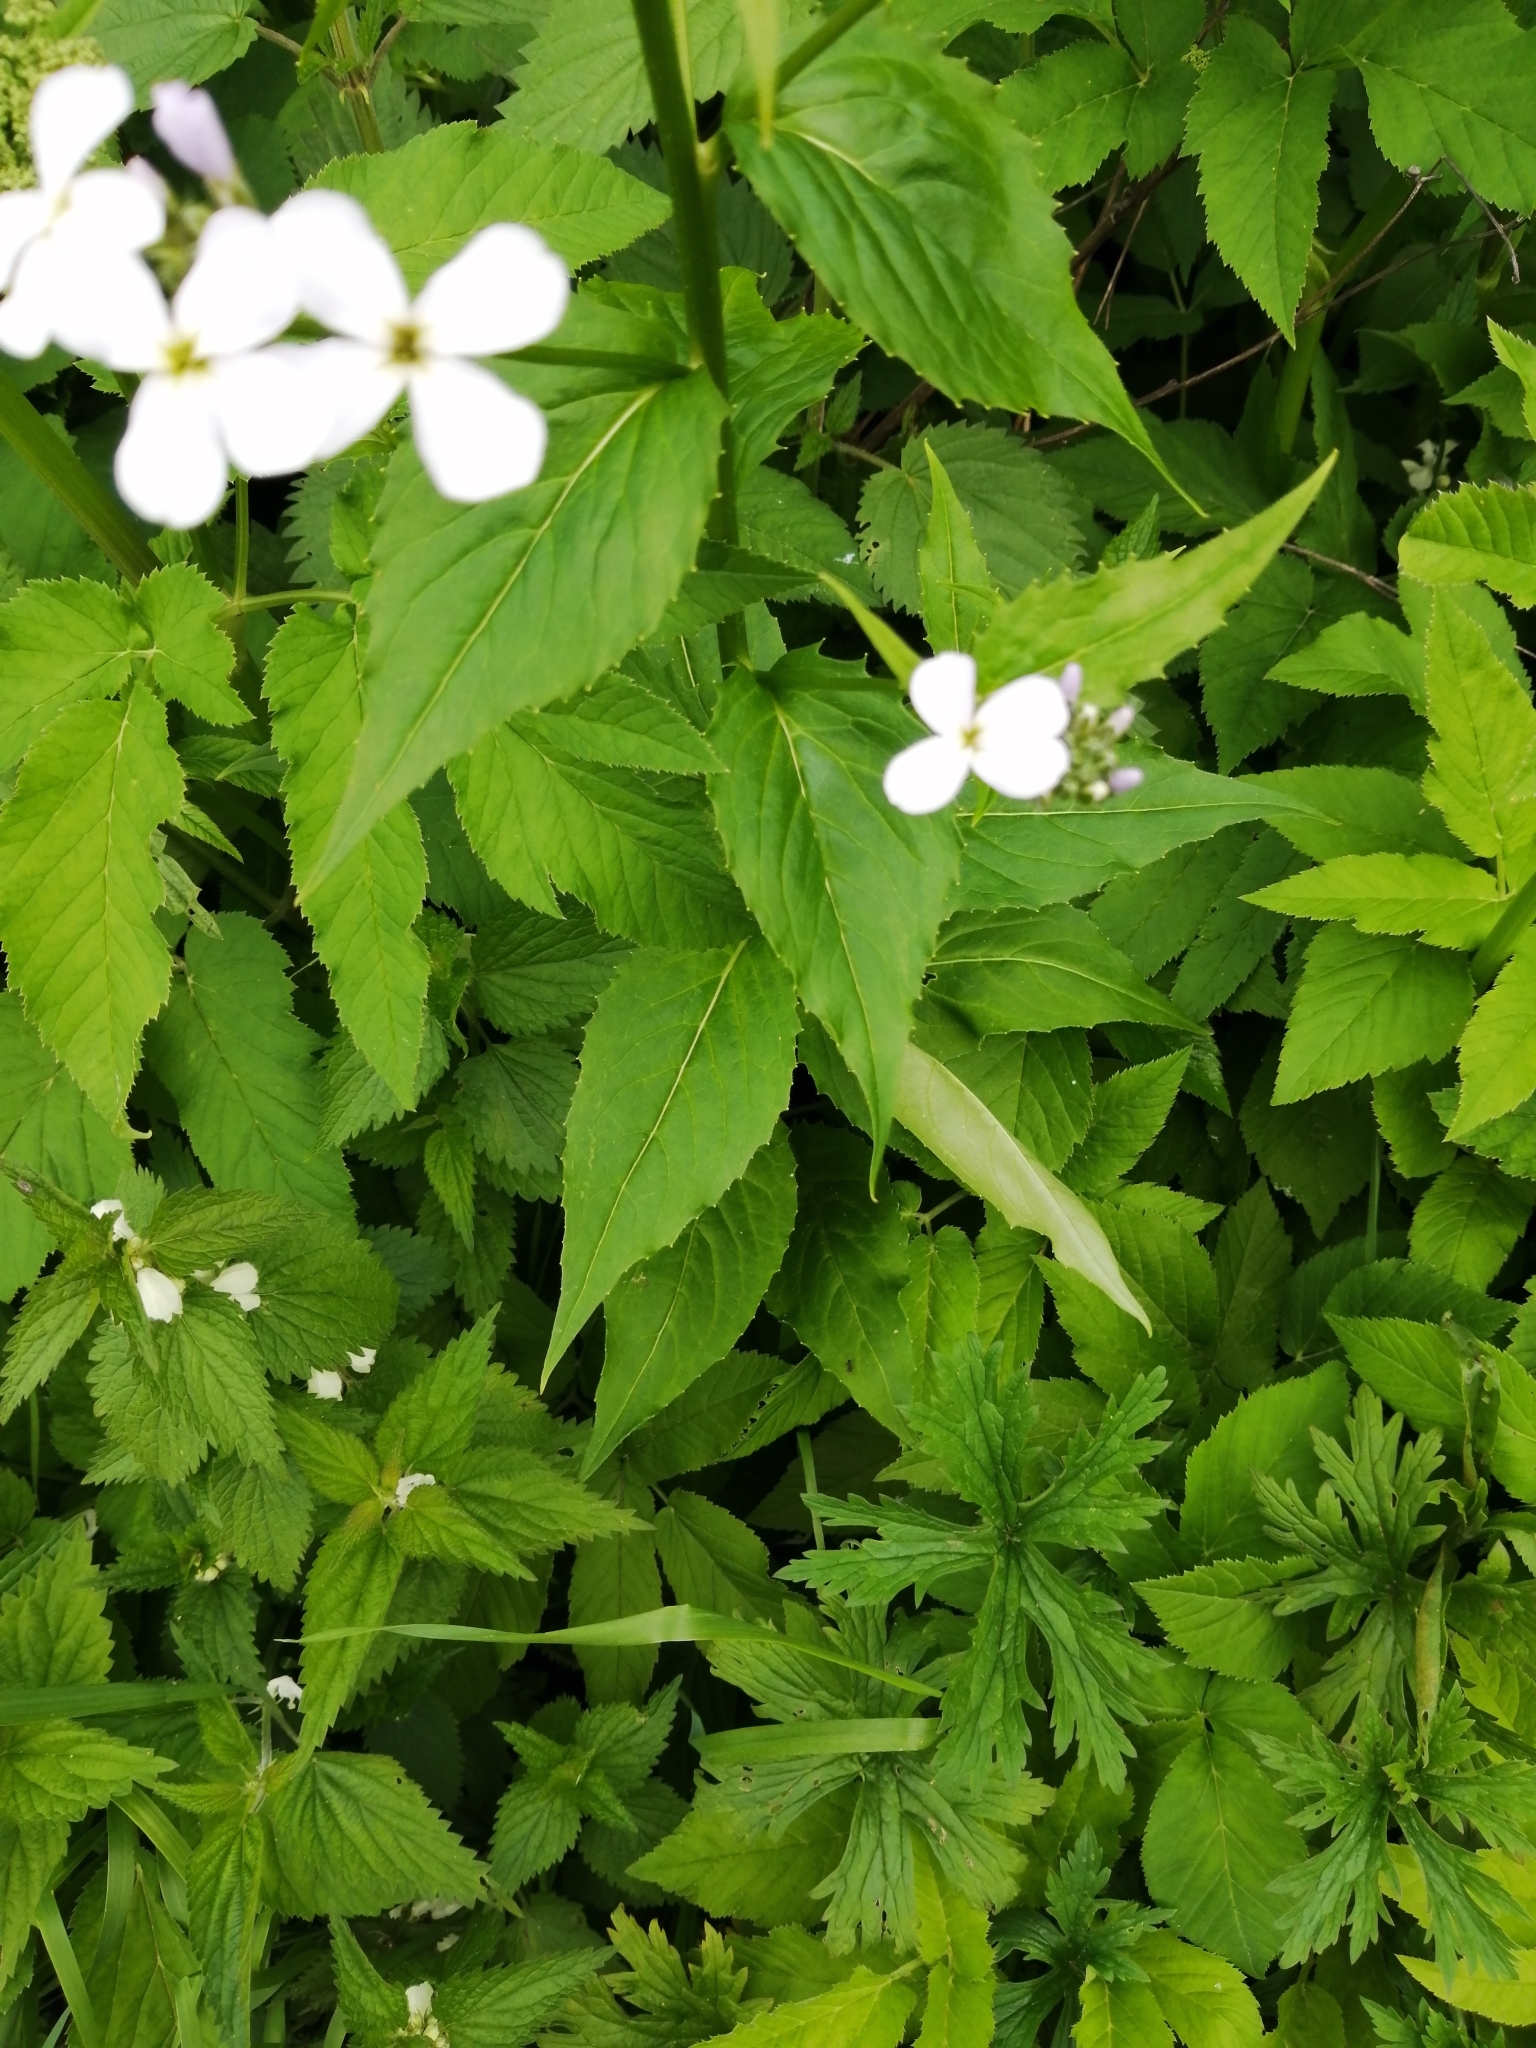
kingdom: Plantae
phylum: Tracheophyta
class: Magnoliopsida
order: Brassicales
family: Brassicaceae
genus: Hesperis
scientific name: Hesperis matronalis
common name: Dame's-violet
